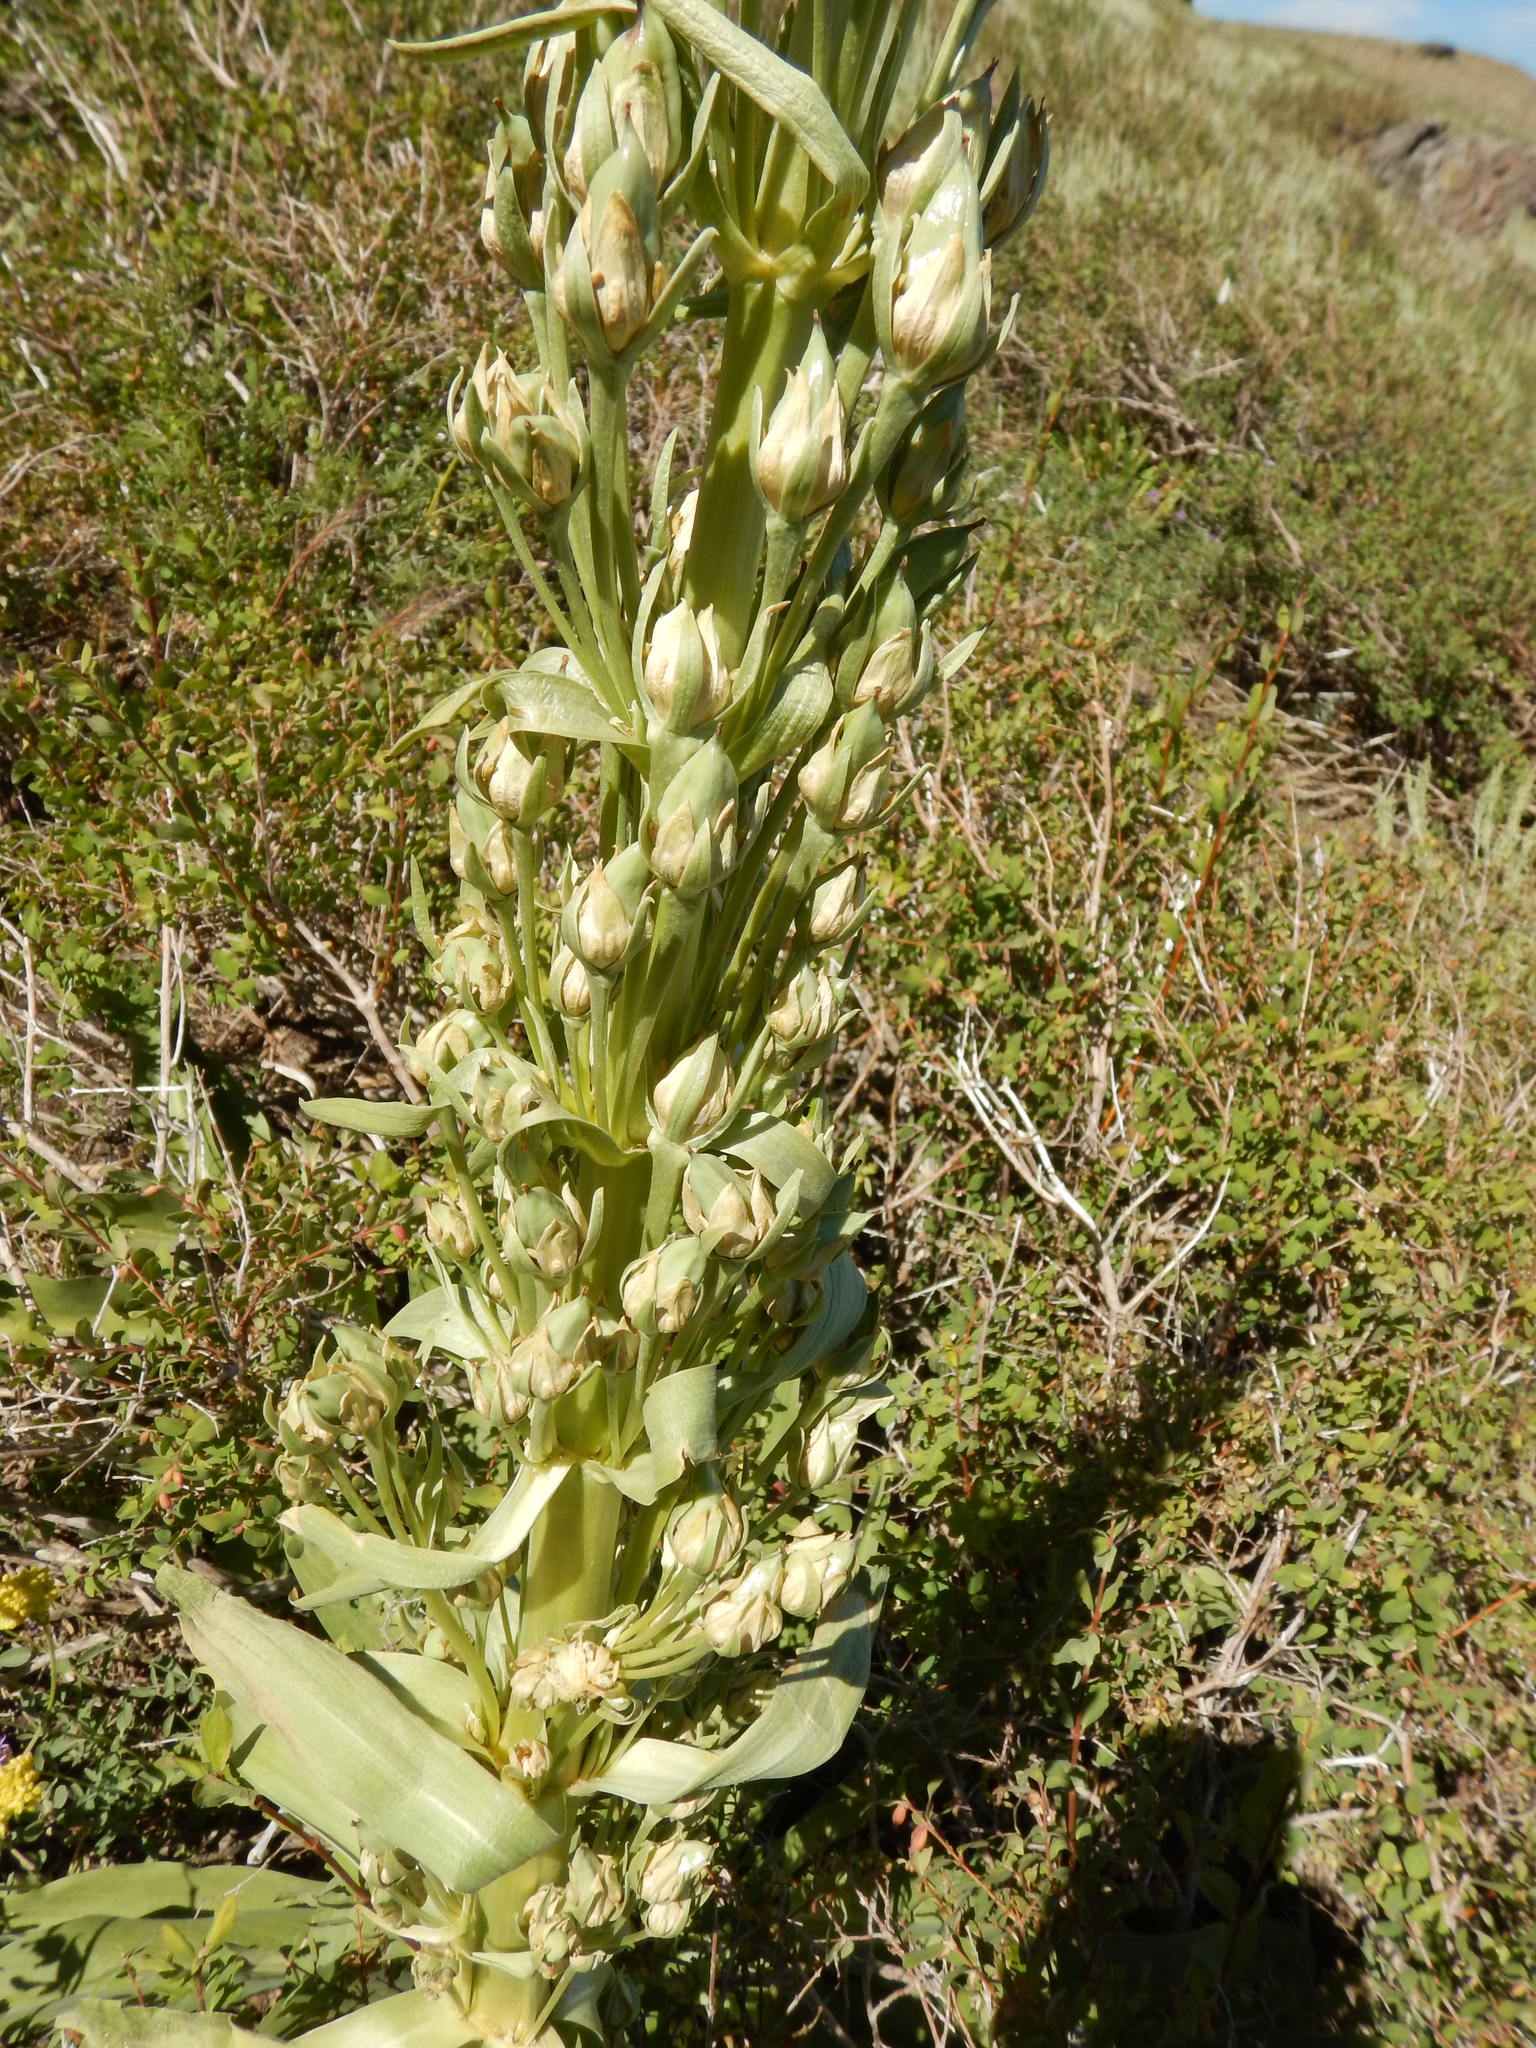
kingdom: Plantae
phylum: Tracheophyta
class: Magnoliopsida
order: Gentianales
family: Gentianaceae
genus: Frasera
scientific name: Frasera speciosa
